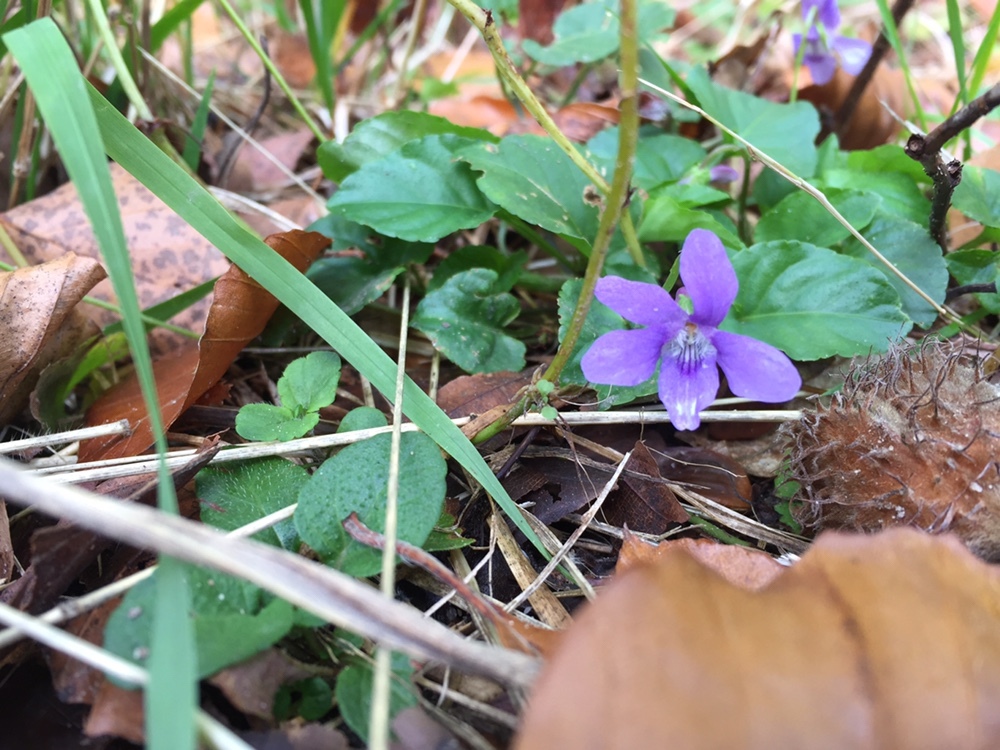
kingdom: Plantae
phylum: Tracheophyta
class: Magnoliopsida
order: Malpighiales
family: Violaceae
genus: Viola
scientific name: Viola reichenbachiana
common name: Early dog-violet
